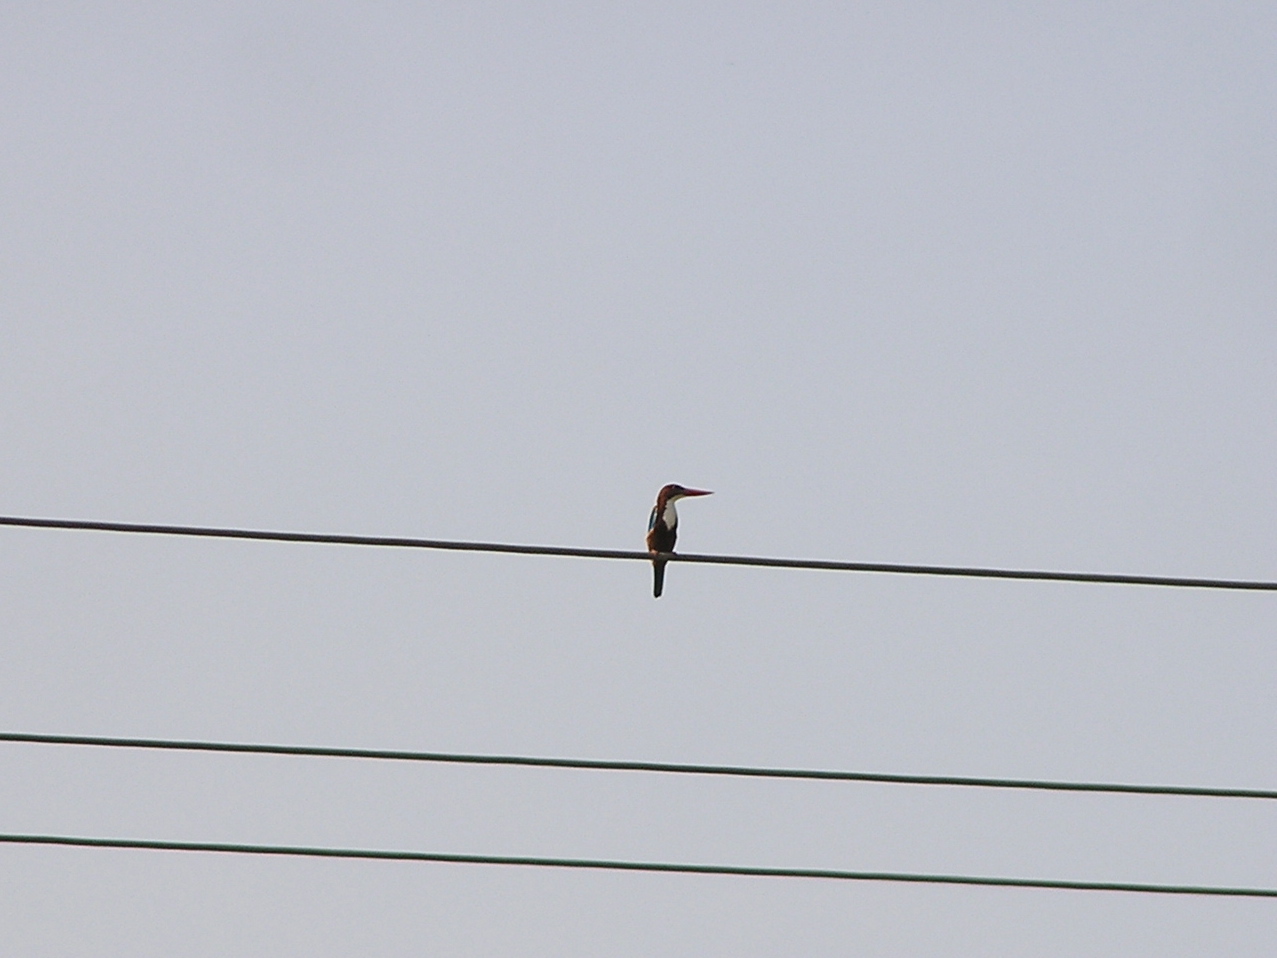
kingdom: Animalia
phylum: Chordata
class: Aves
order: Coraciiformes
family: Alcedinidae
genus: Halcyon
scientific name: Halcyon smyrnensis
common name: White-throated kingfisher
